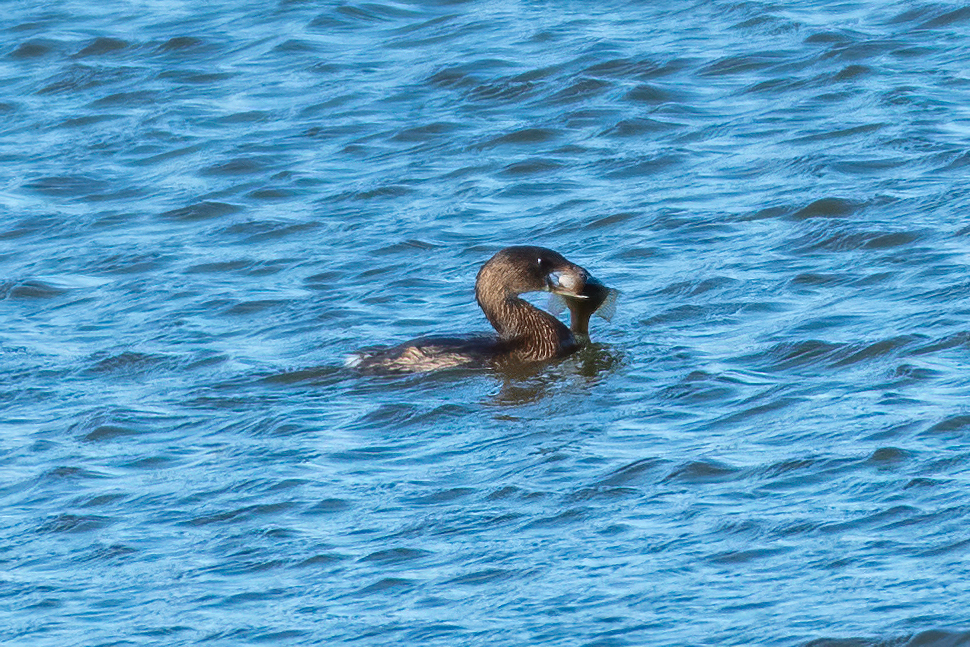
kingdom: Animalia
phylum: Chordata
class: Aves
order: Podicipediformes
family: Podicipedidae
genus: Podilymbus
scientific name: Podilymbus podiceps
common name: Pied-billed grebe
